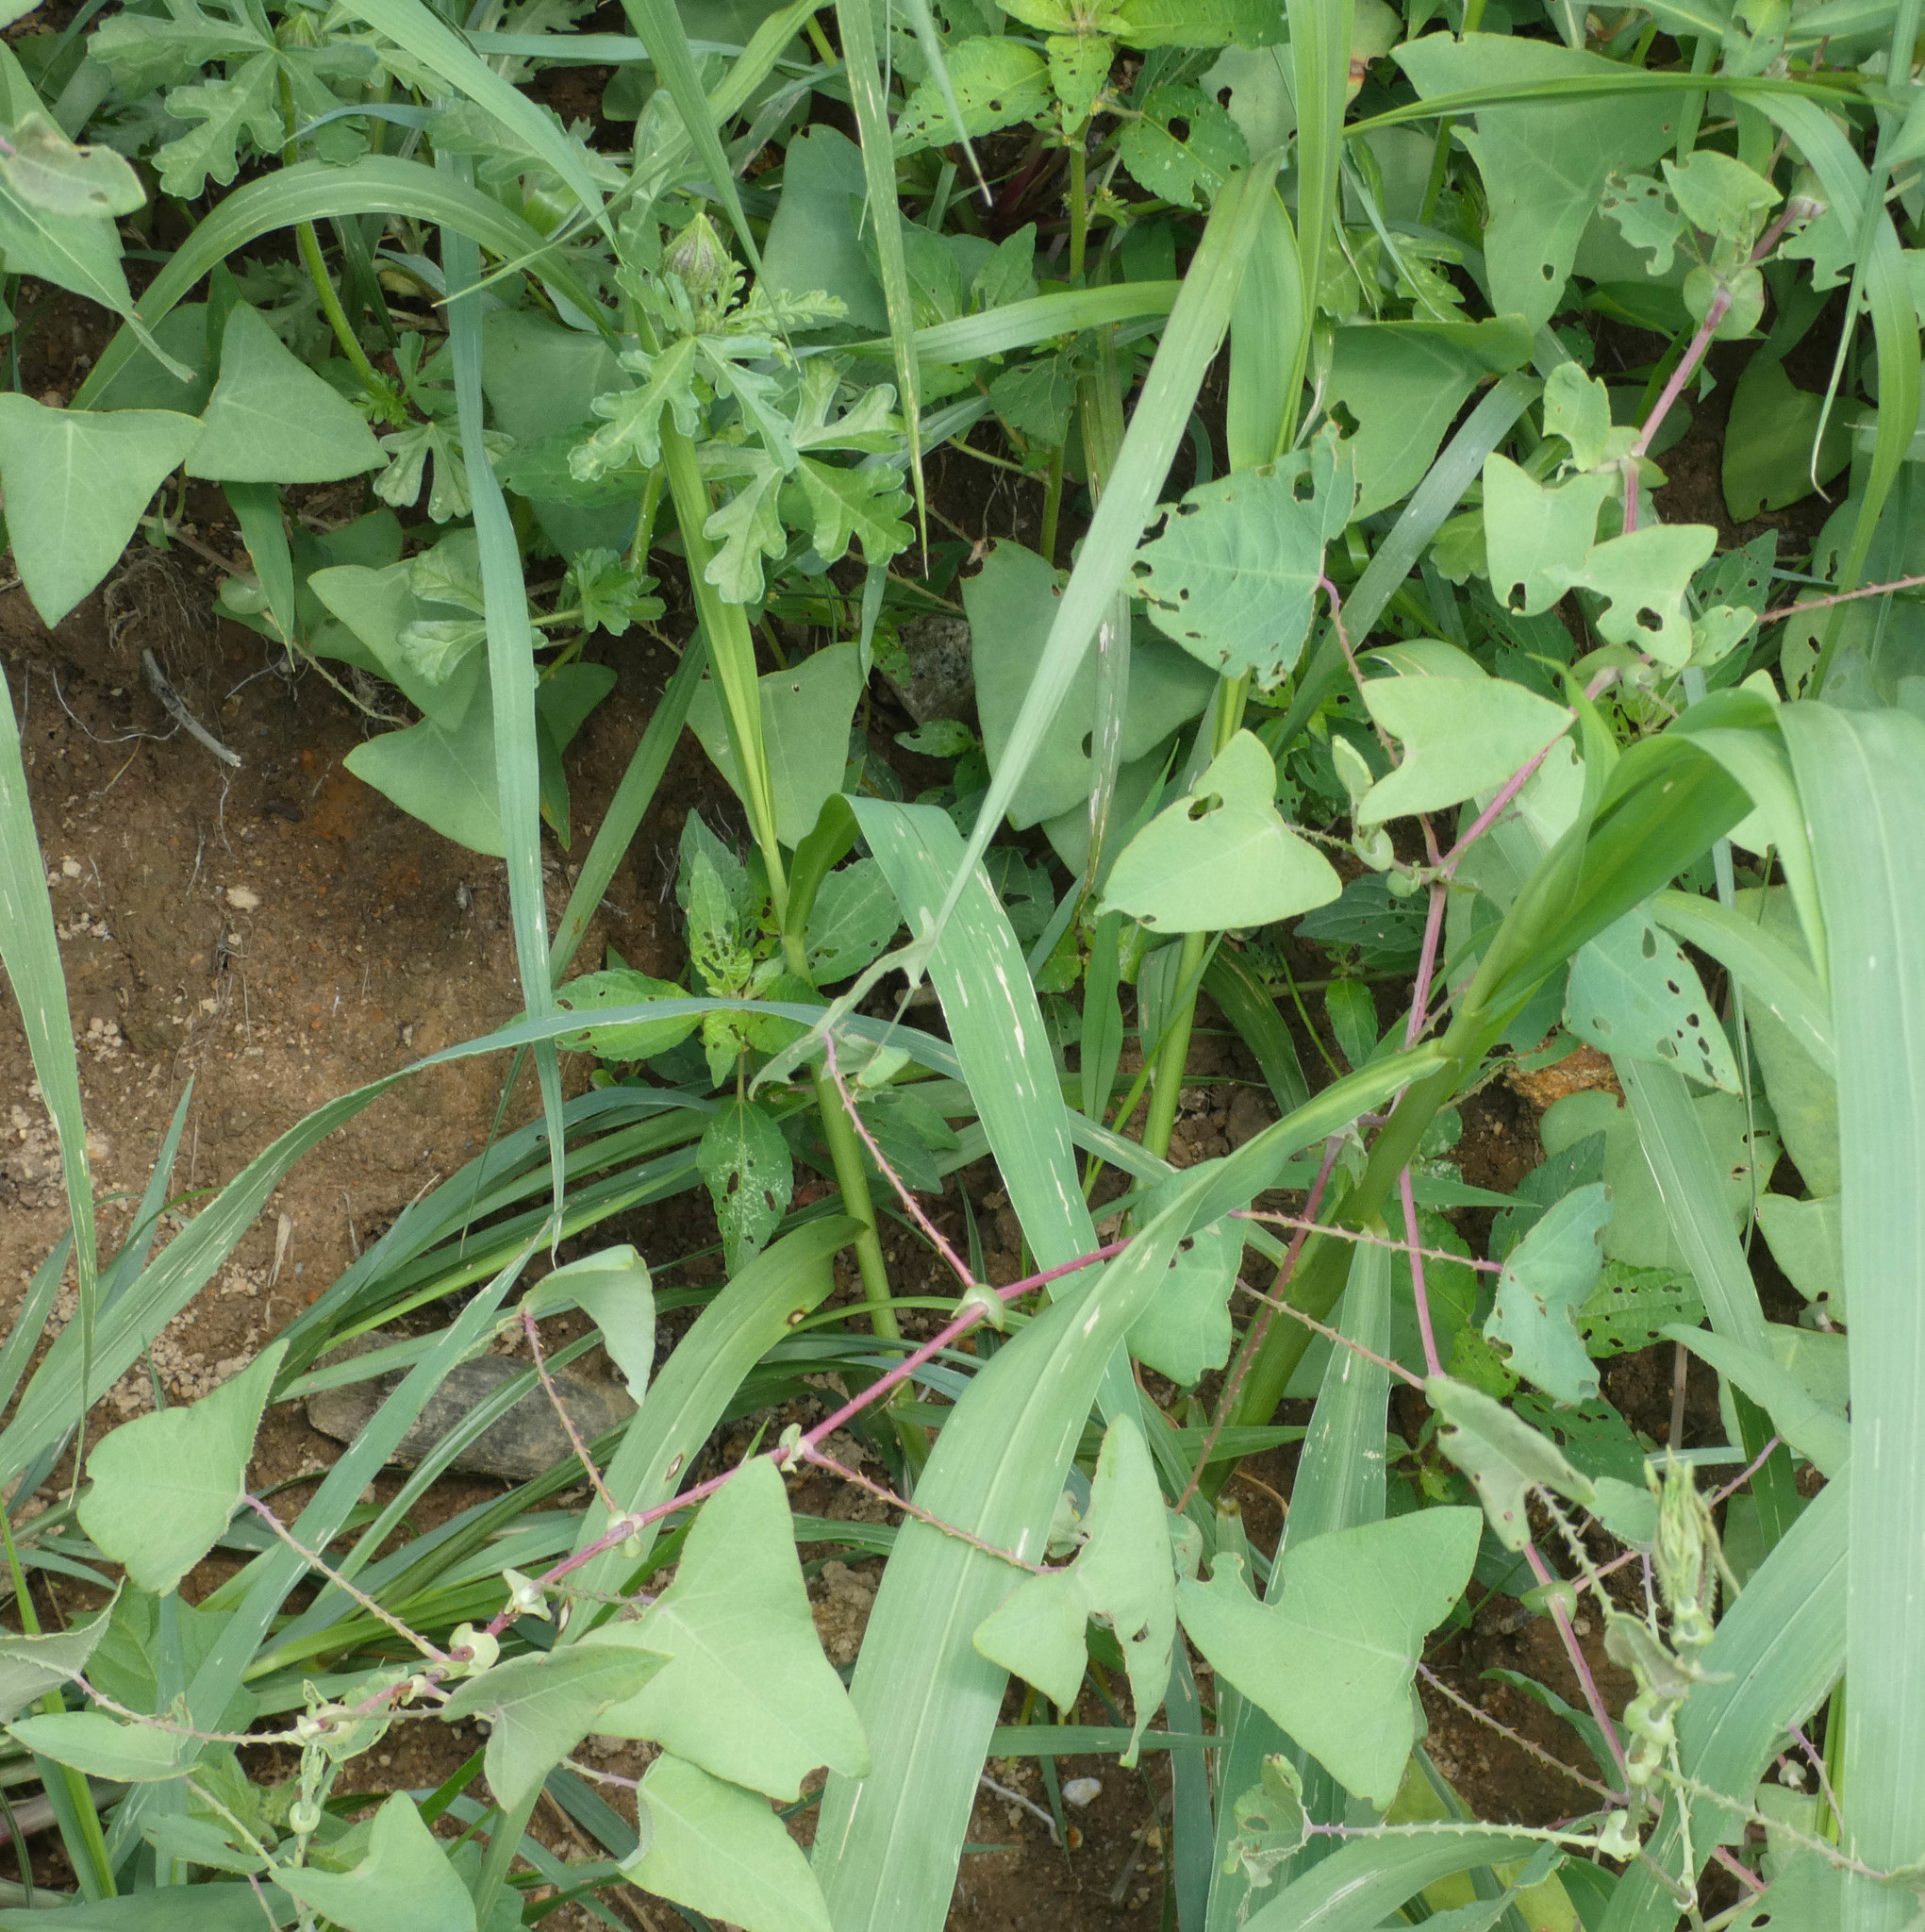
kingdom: Plantae
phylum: Tracheophyta
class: Magnoliopsida
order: Caryophyllales
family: Polygonaceae
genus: Persicaria
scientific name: Persicaria perfoliata
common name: Asiatic tearthumb
